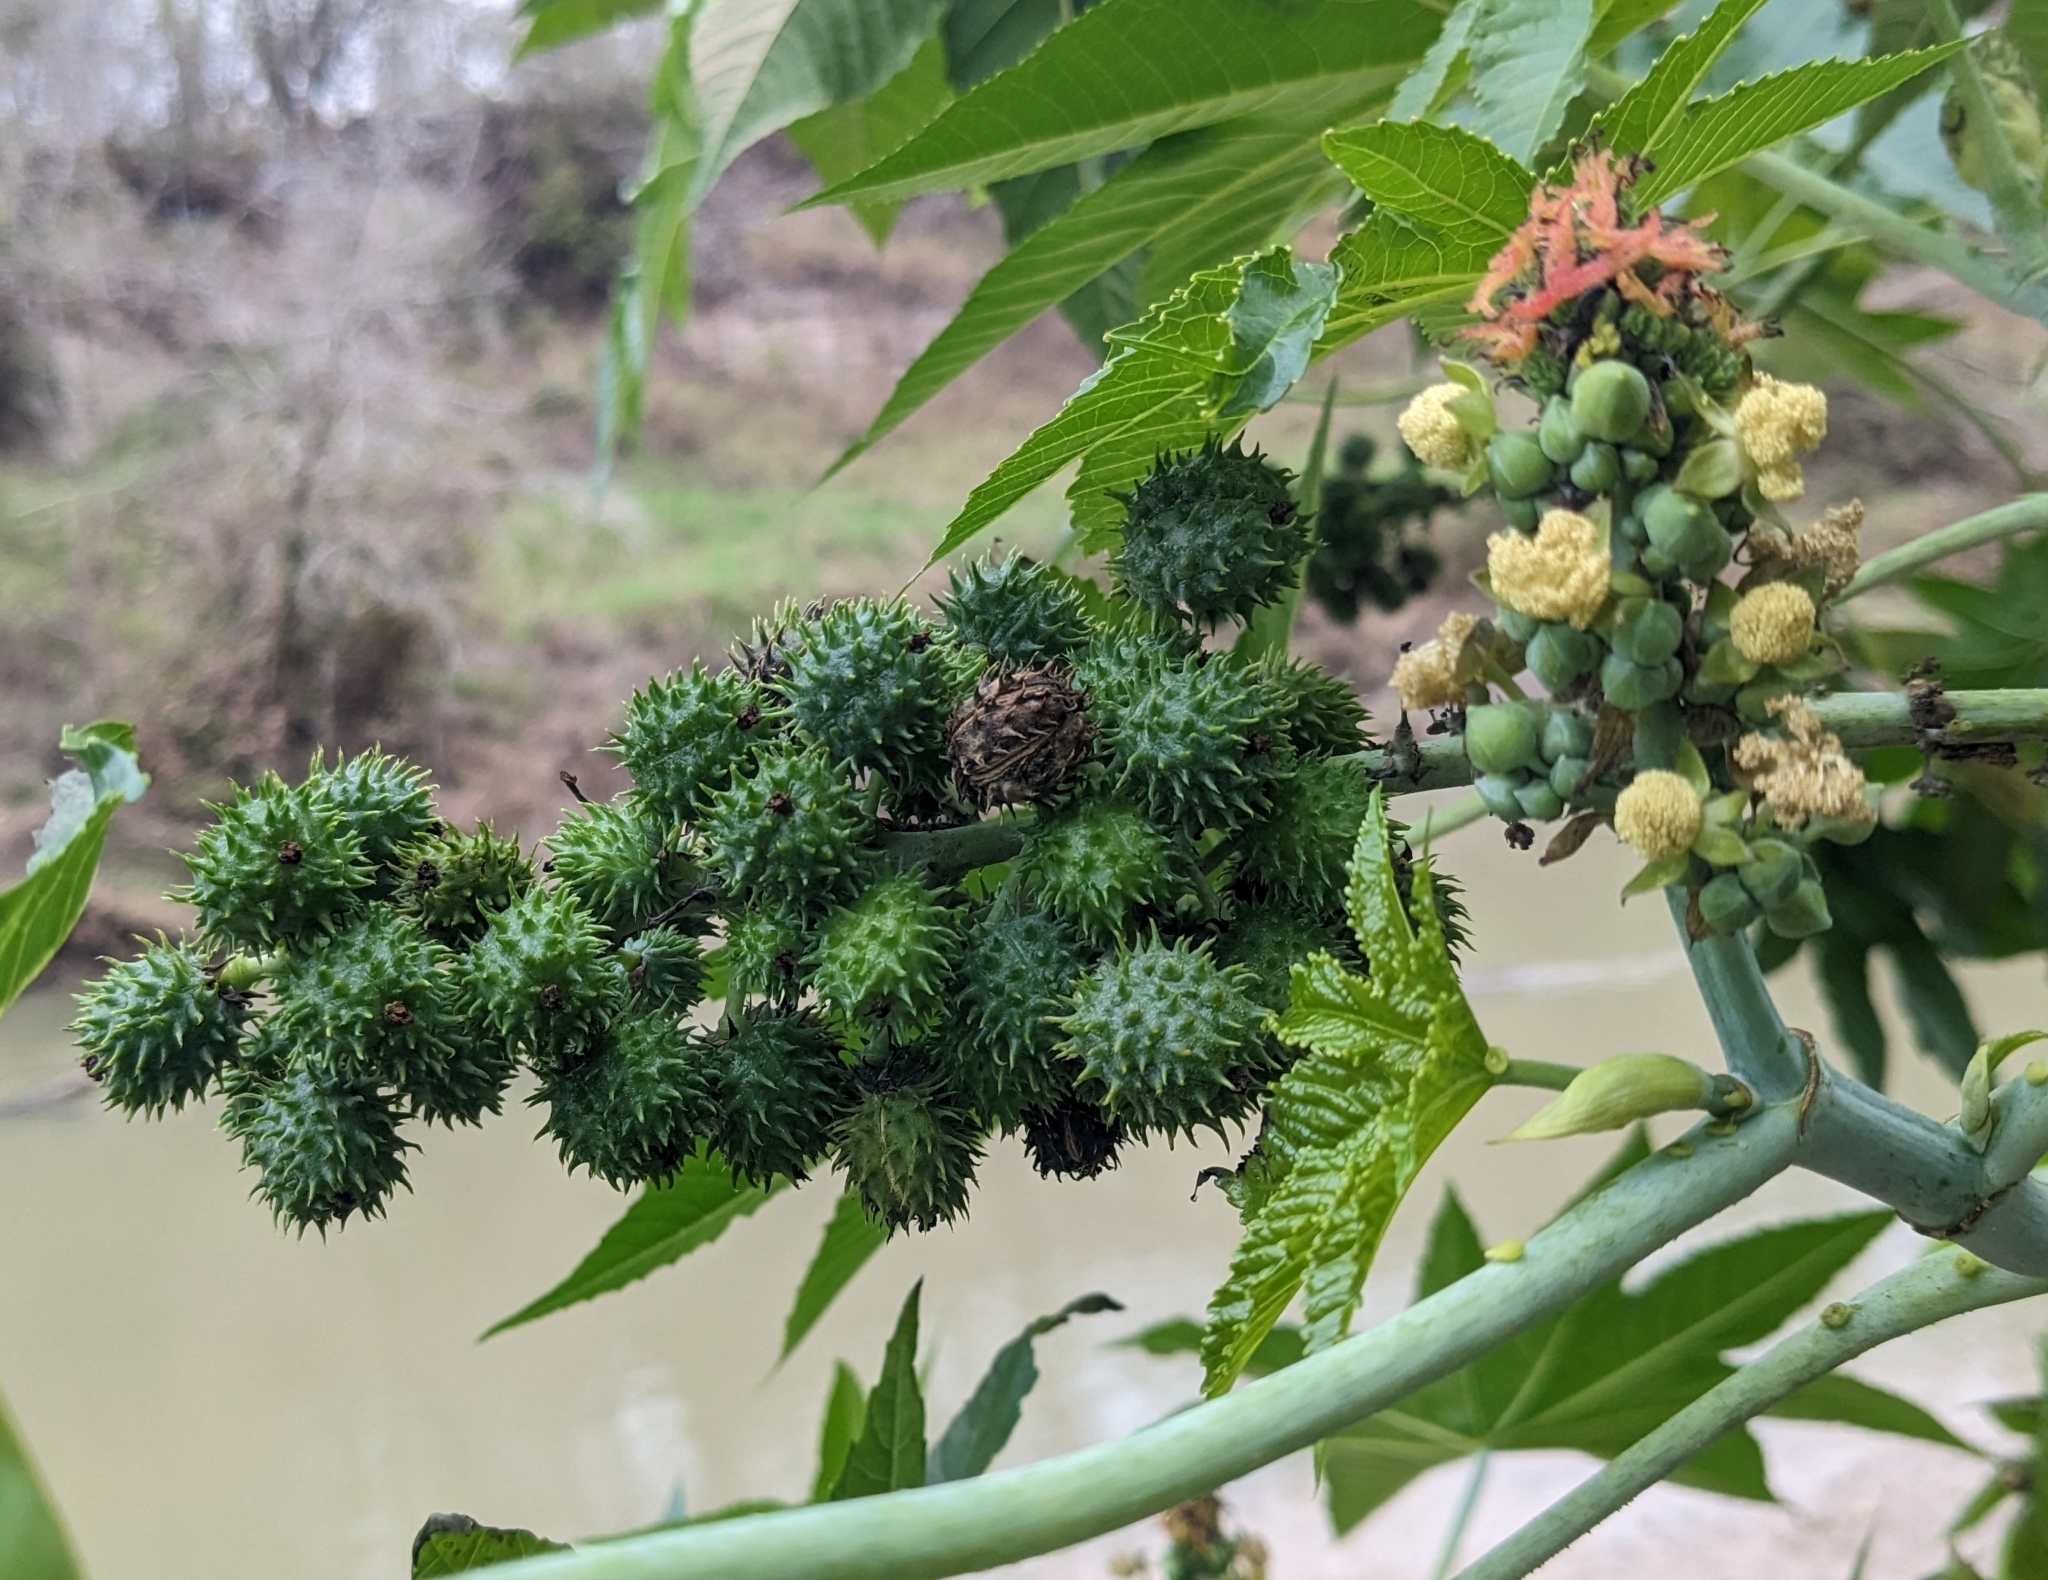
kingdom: Plantae
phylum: Tracheophyta
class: Magnoliopsida
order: Malpighiales
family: Euphorbiaceae
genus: Ricinus
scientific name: Ricinus communis
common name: Castor-oil-plant
